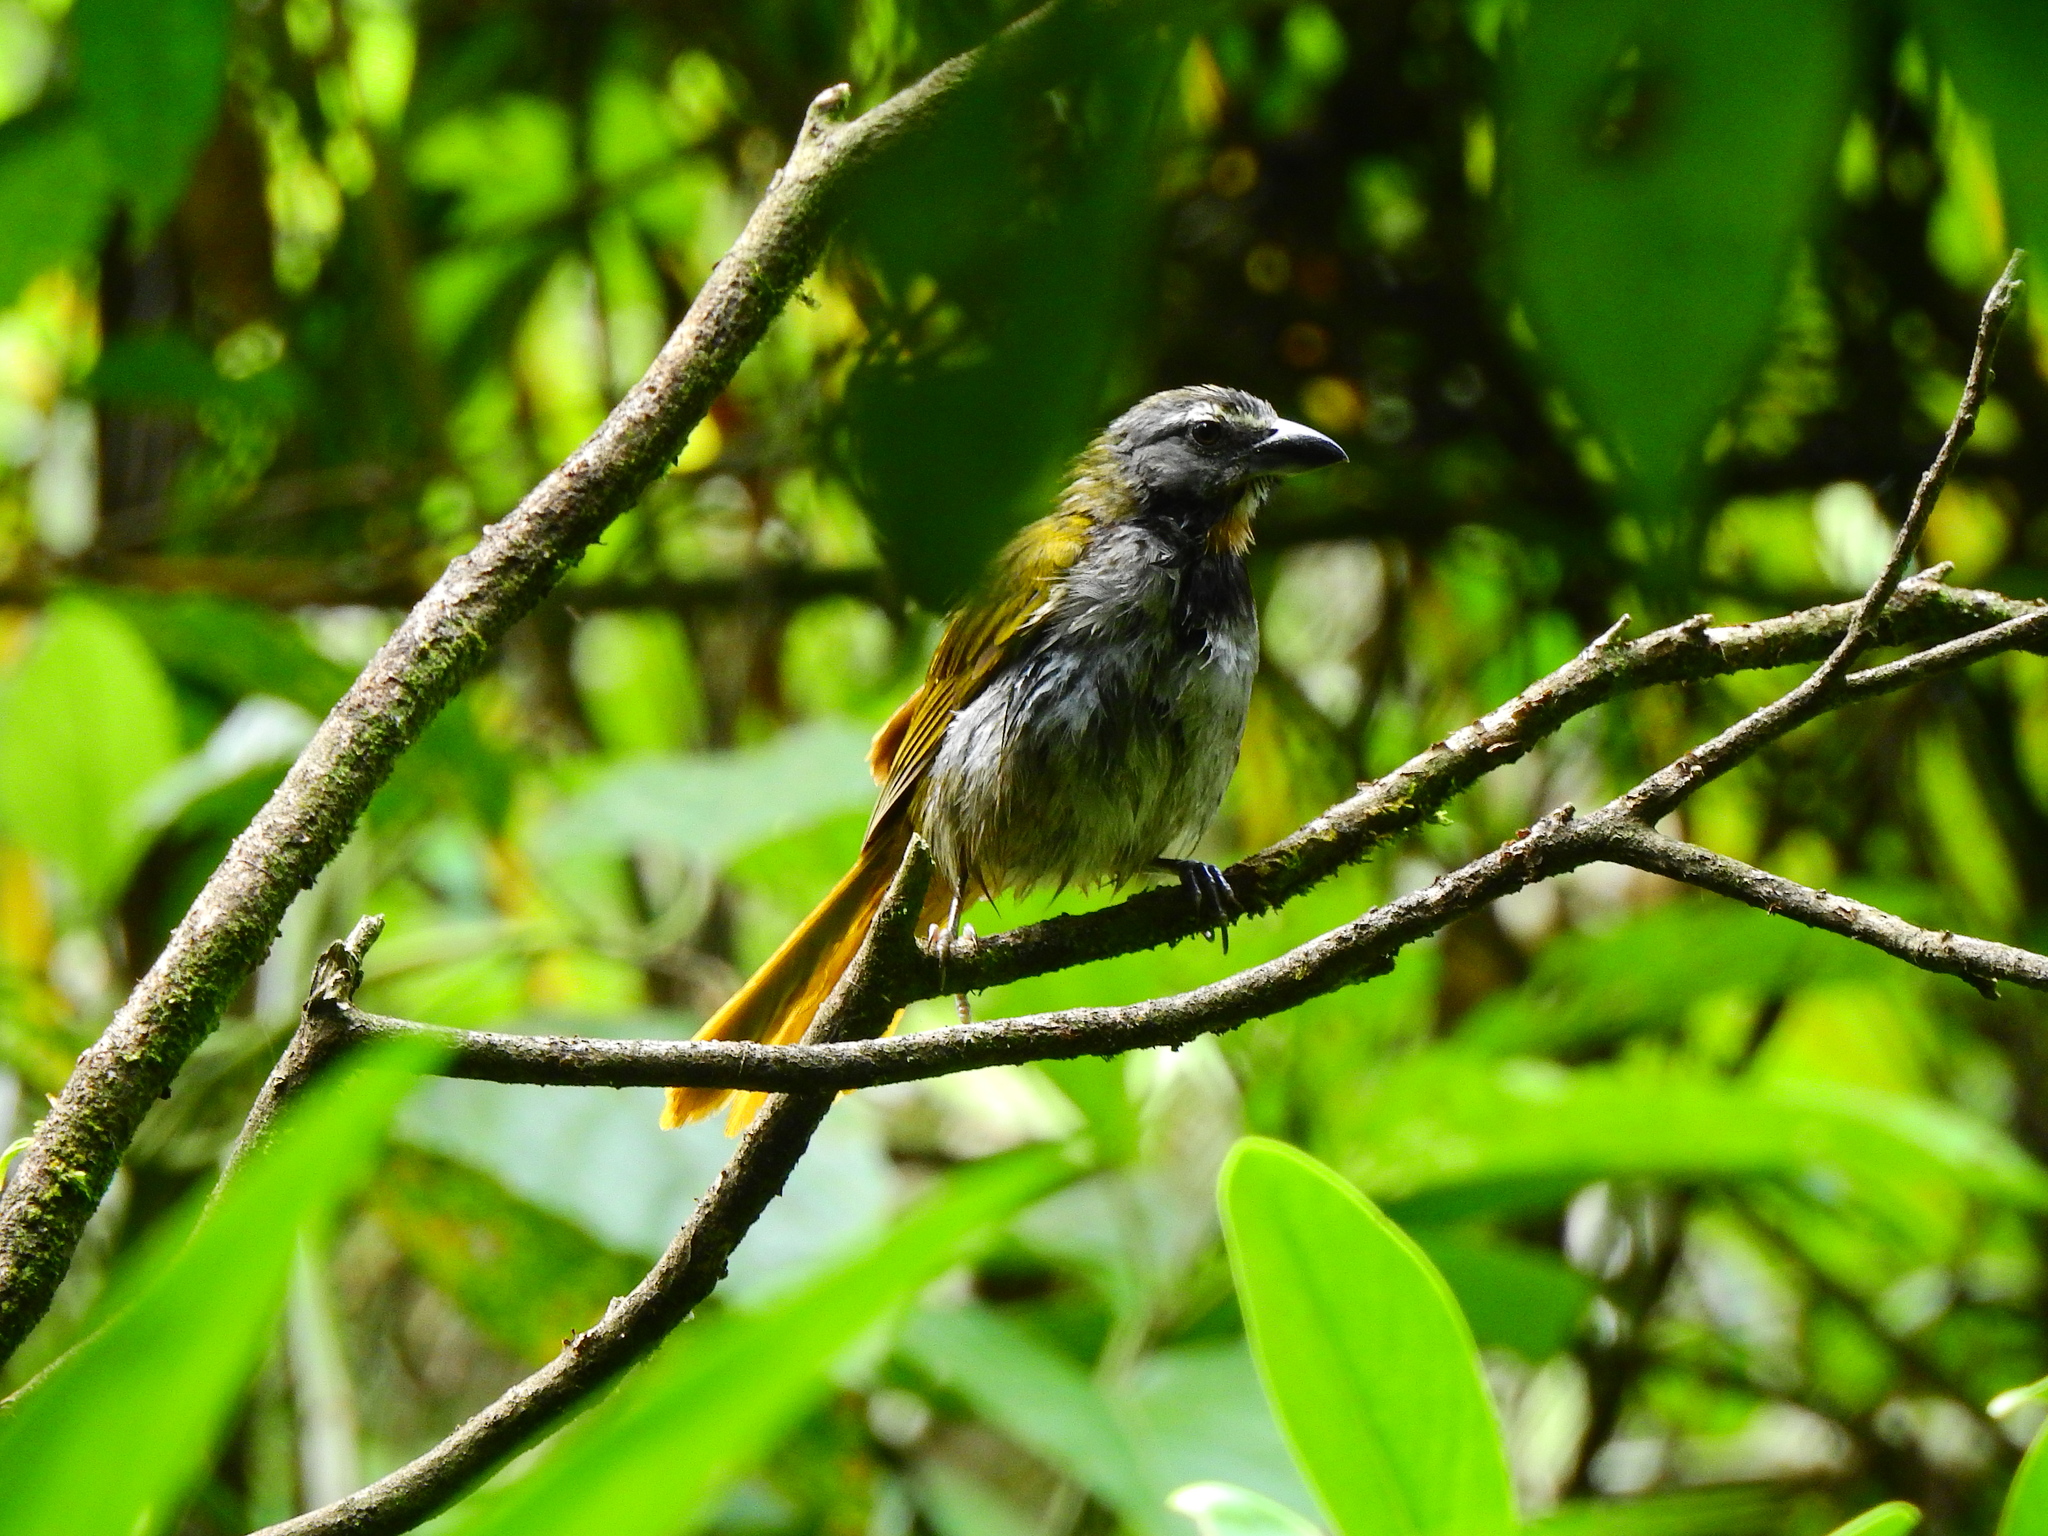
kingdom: Animalia
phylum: Chordata
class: Aves
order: Passeriformes
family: Thraupidae
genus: Saltator
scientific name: Saltator maximus
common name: Buff-throated saltator
